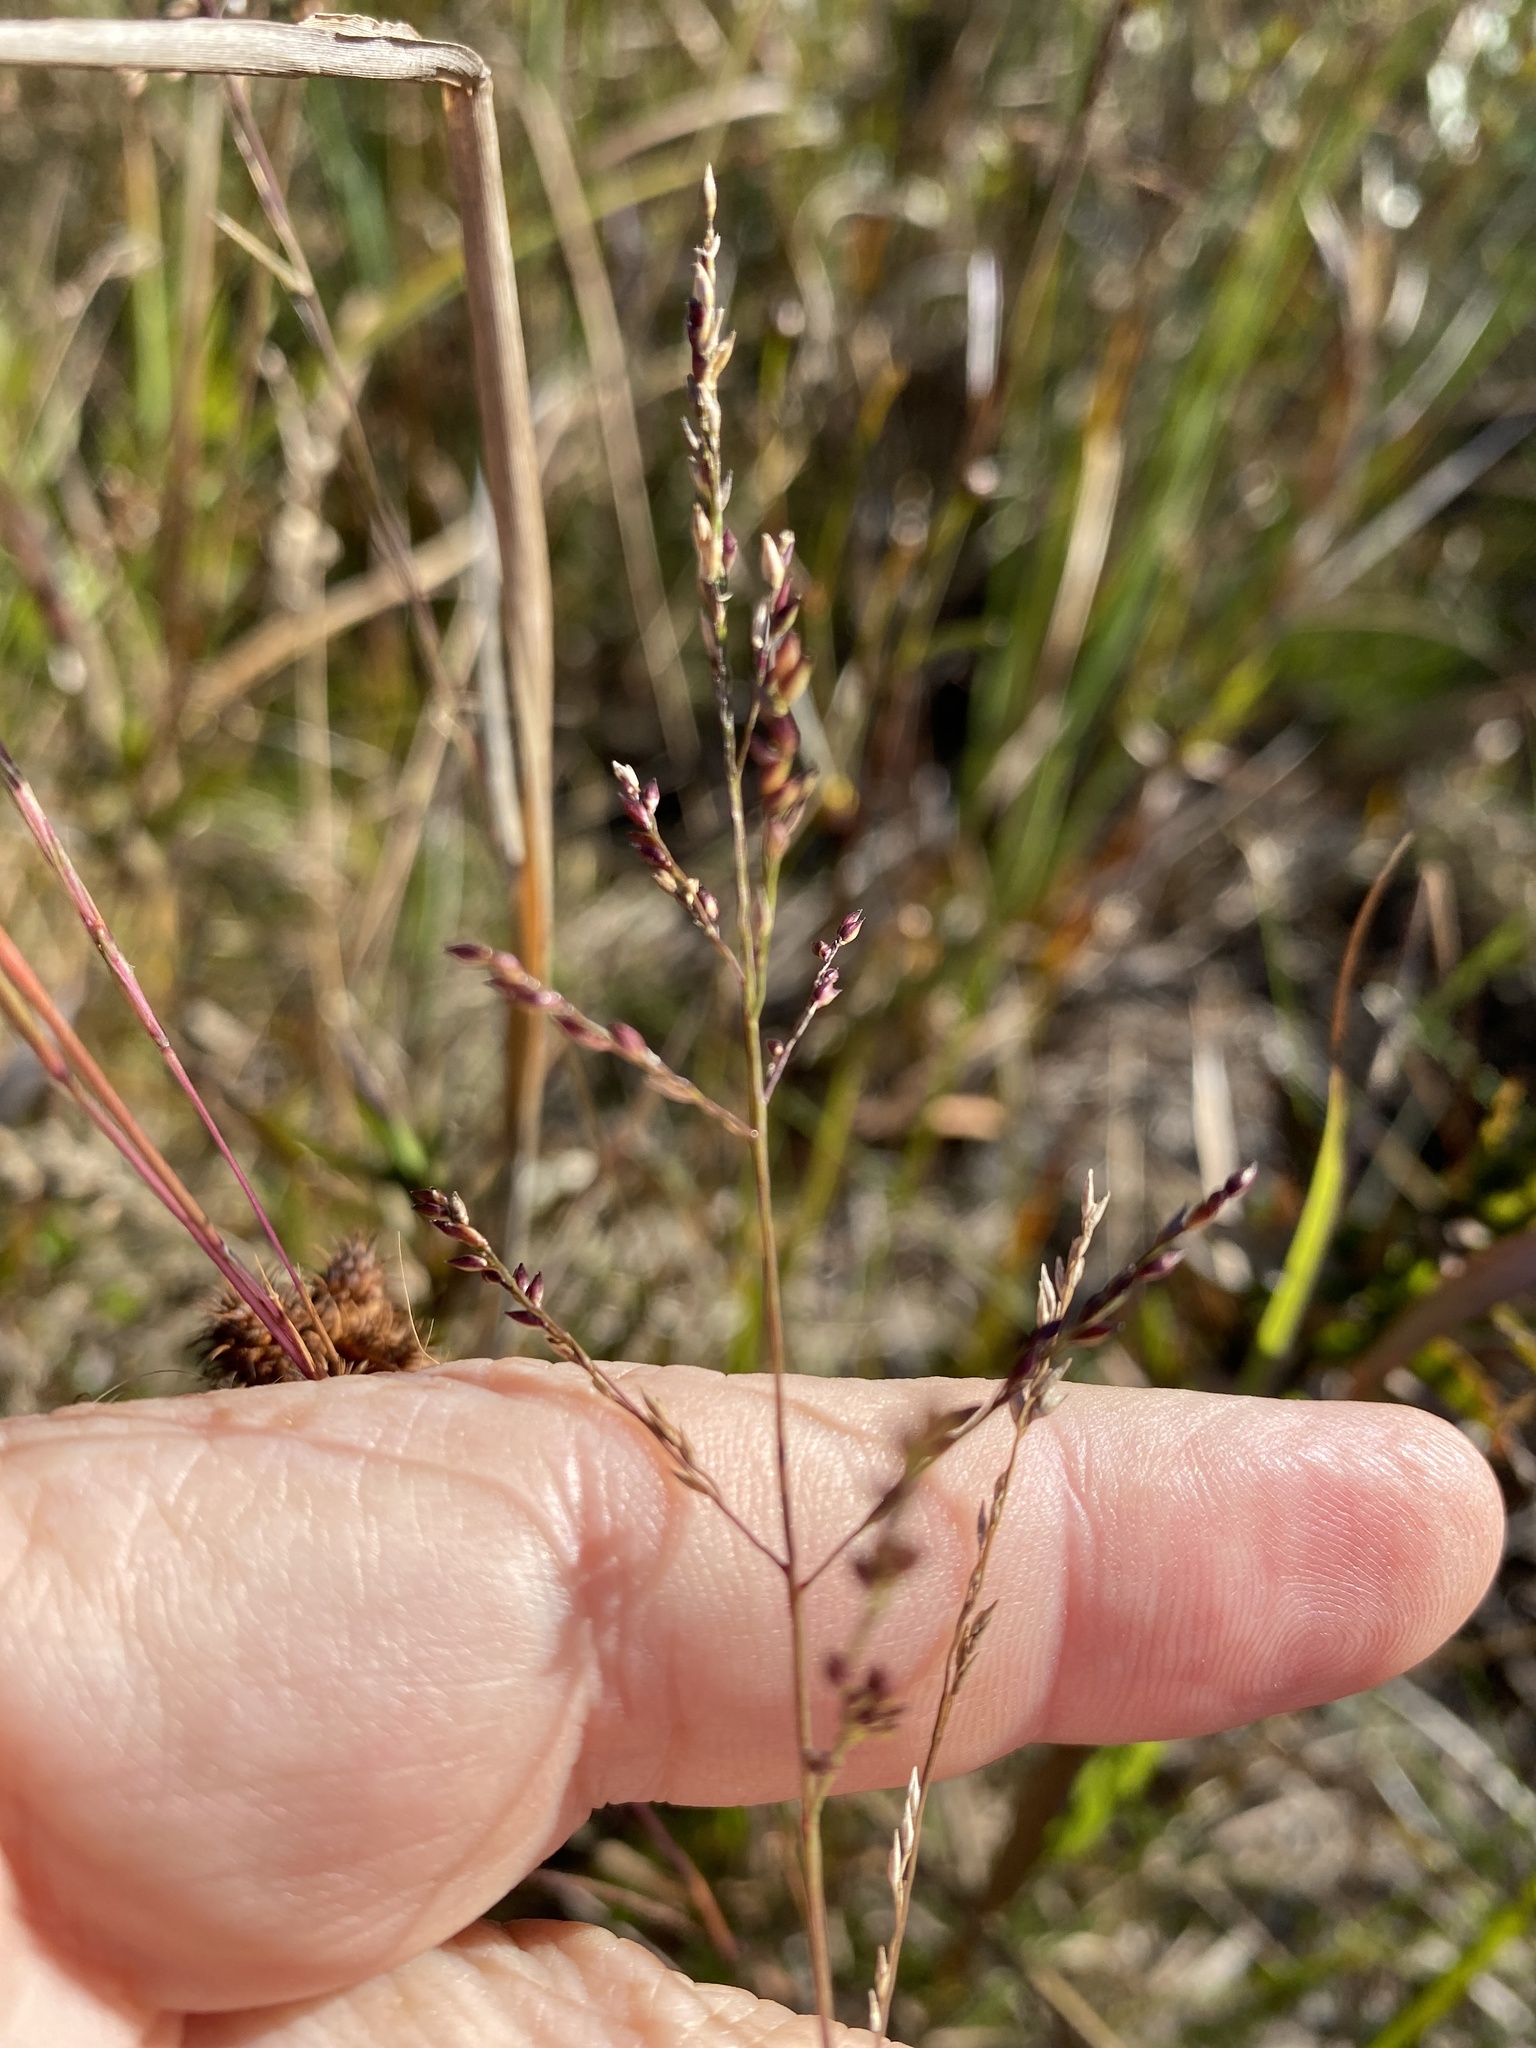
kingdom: Plantae
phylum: Tracheophyta
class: Liliopsida
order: Poales
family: Poaceae
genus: Coleataenia
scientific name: Coleataenia longifolia
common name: Long-leaved panicgrass
